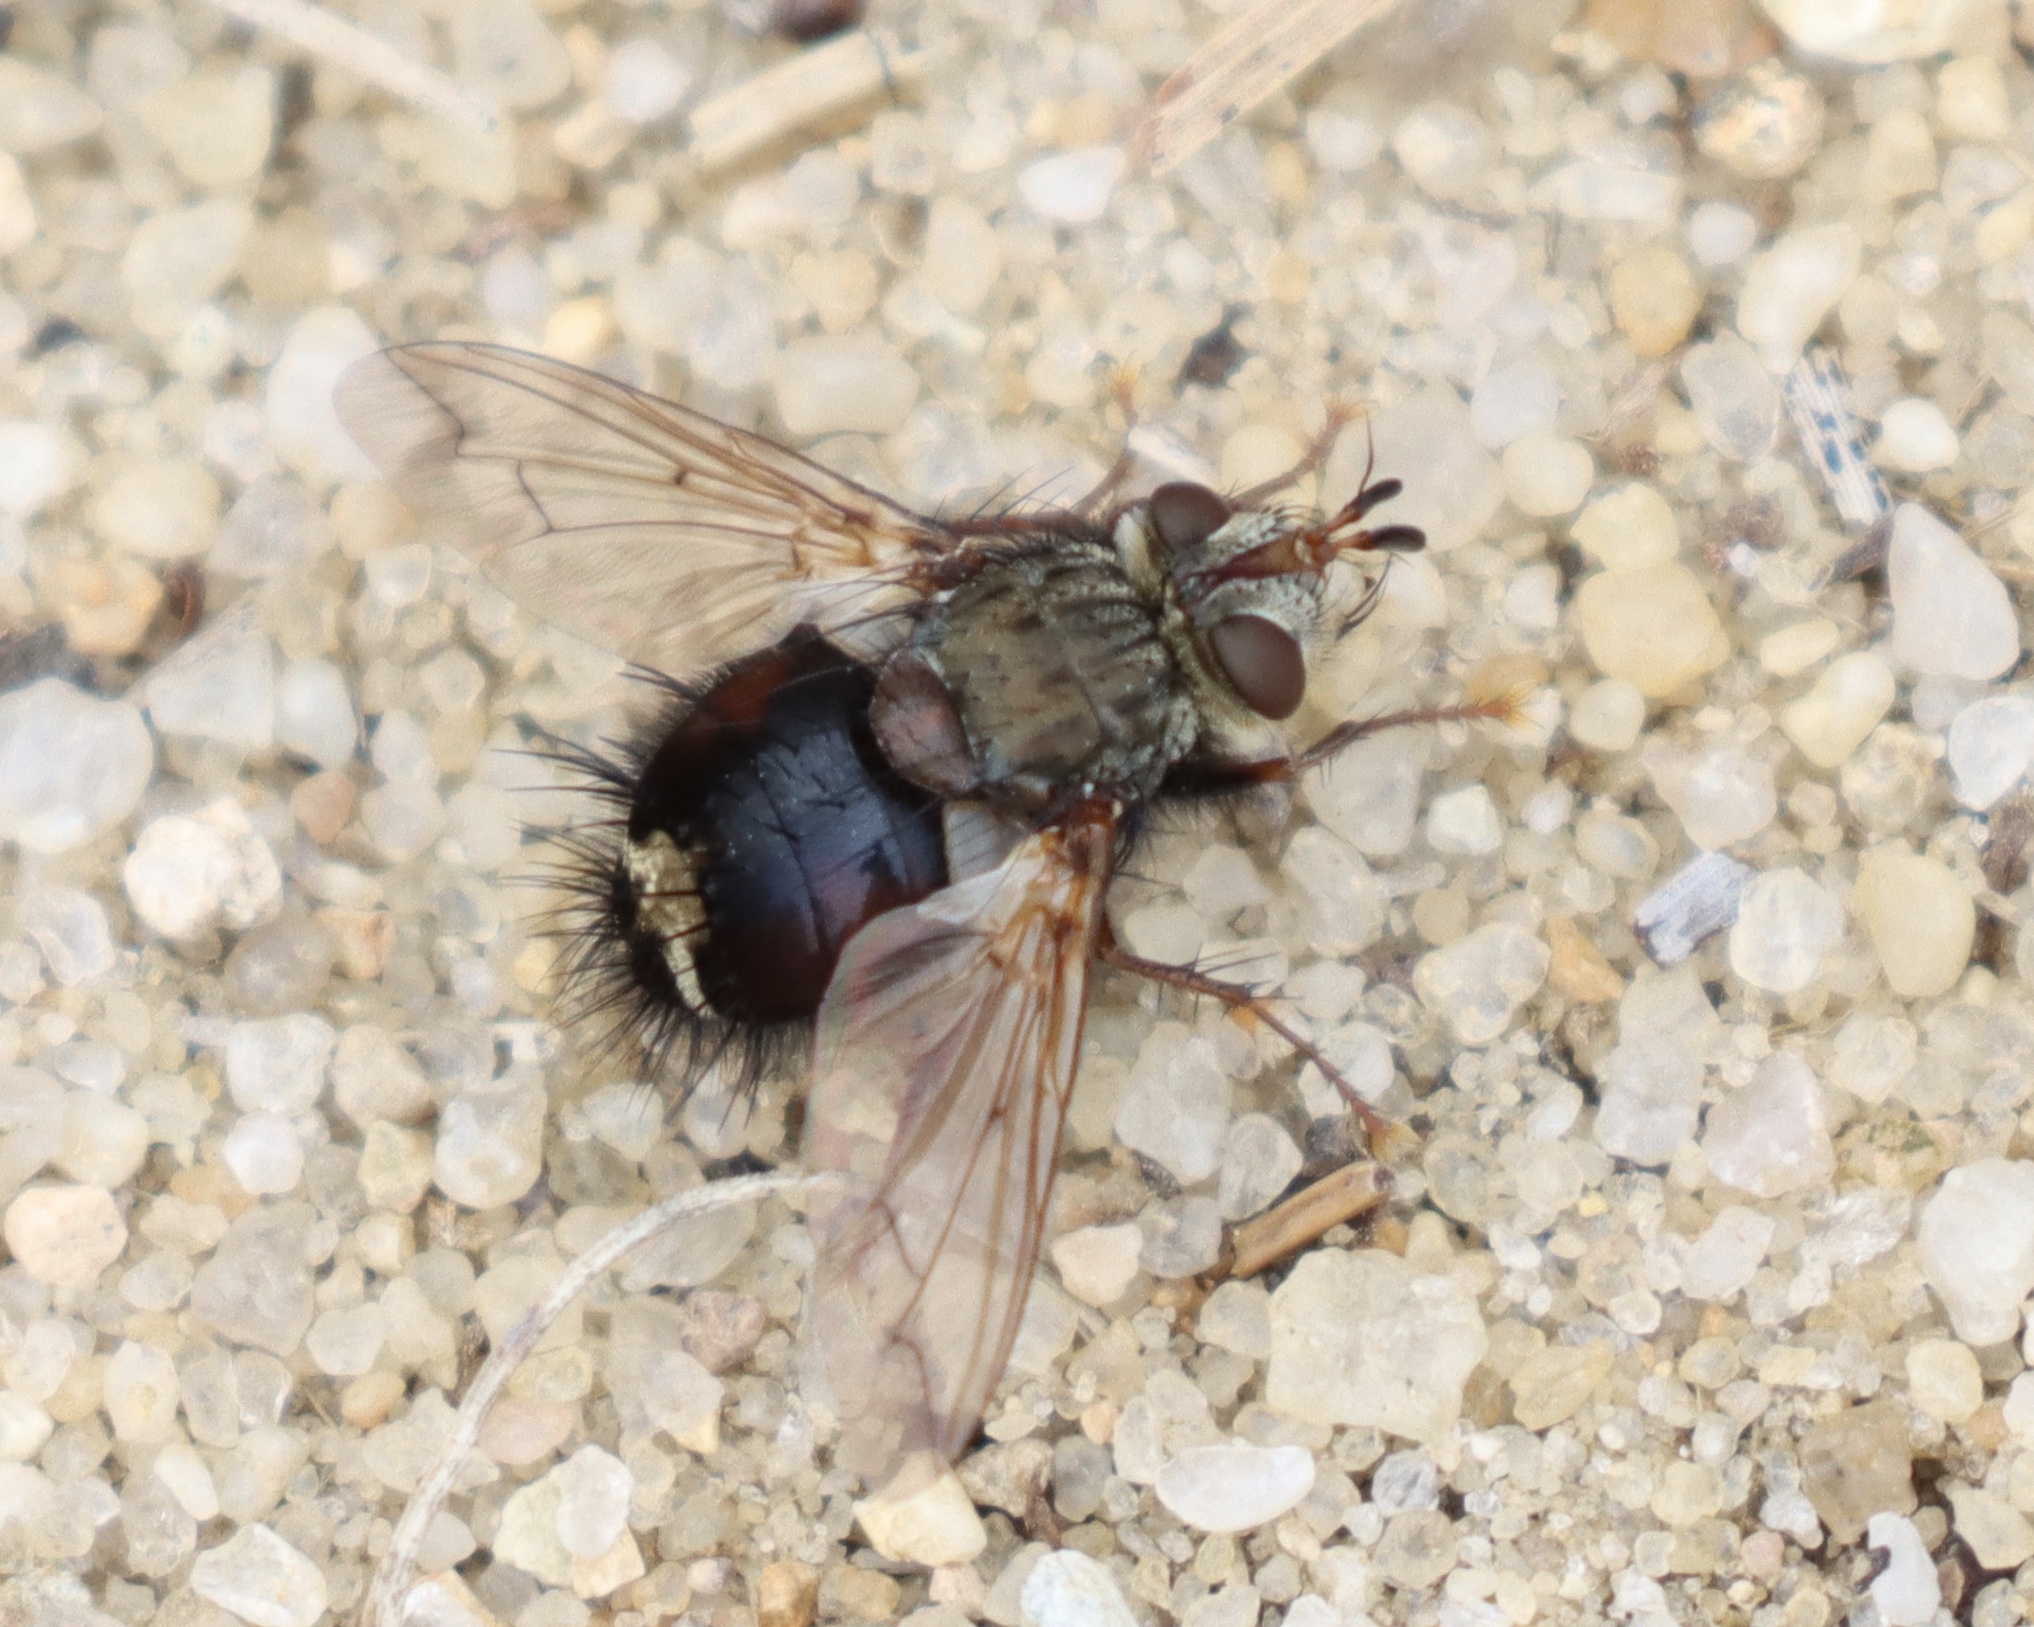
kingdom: Animalia
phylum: Arthropoda
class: Insecta
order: Diptera
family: Tachinidae
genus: Epalpus
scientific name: Epalpus signifer
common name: Early tachinid fly
